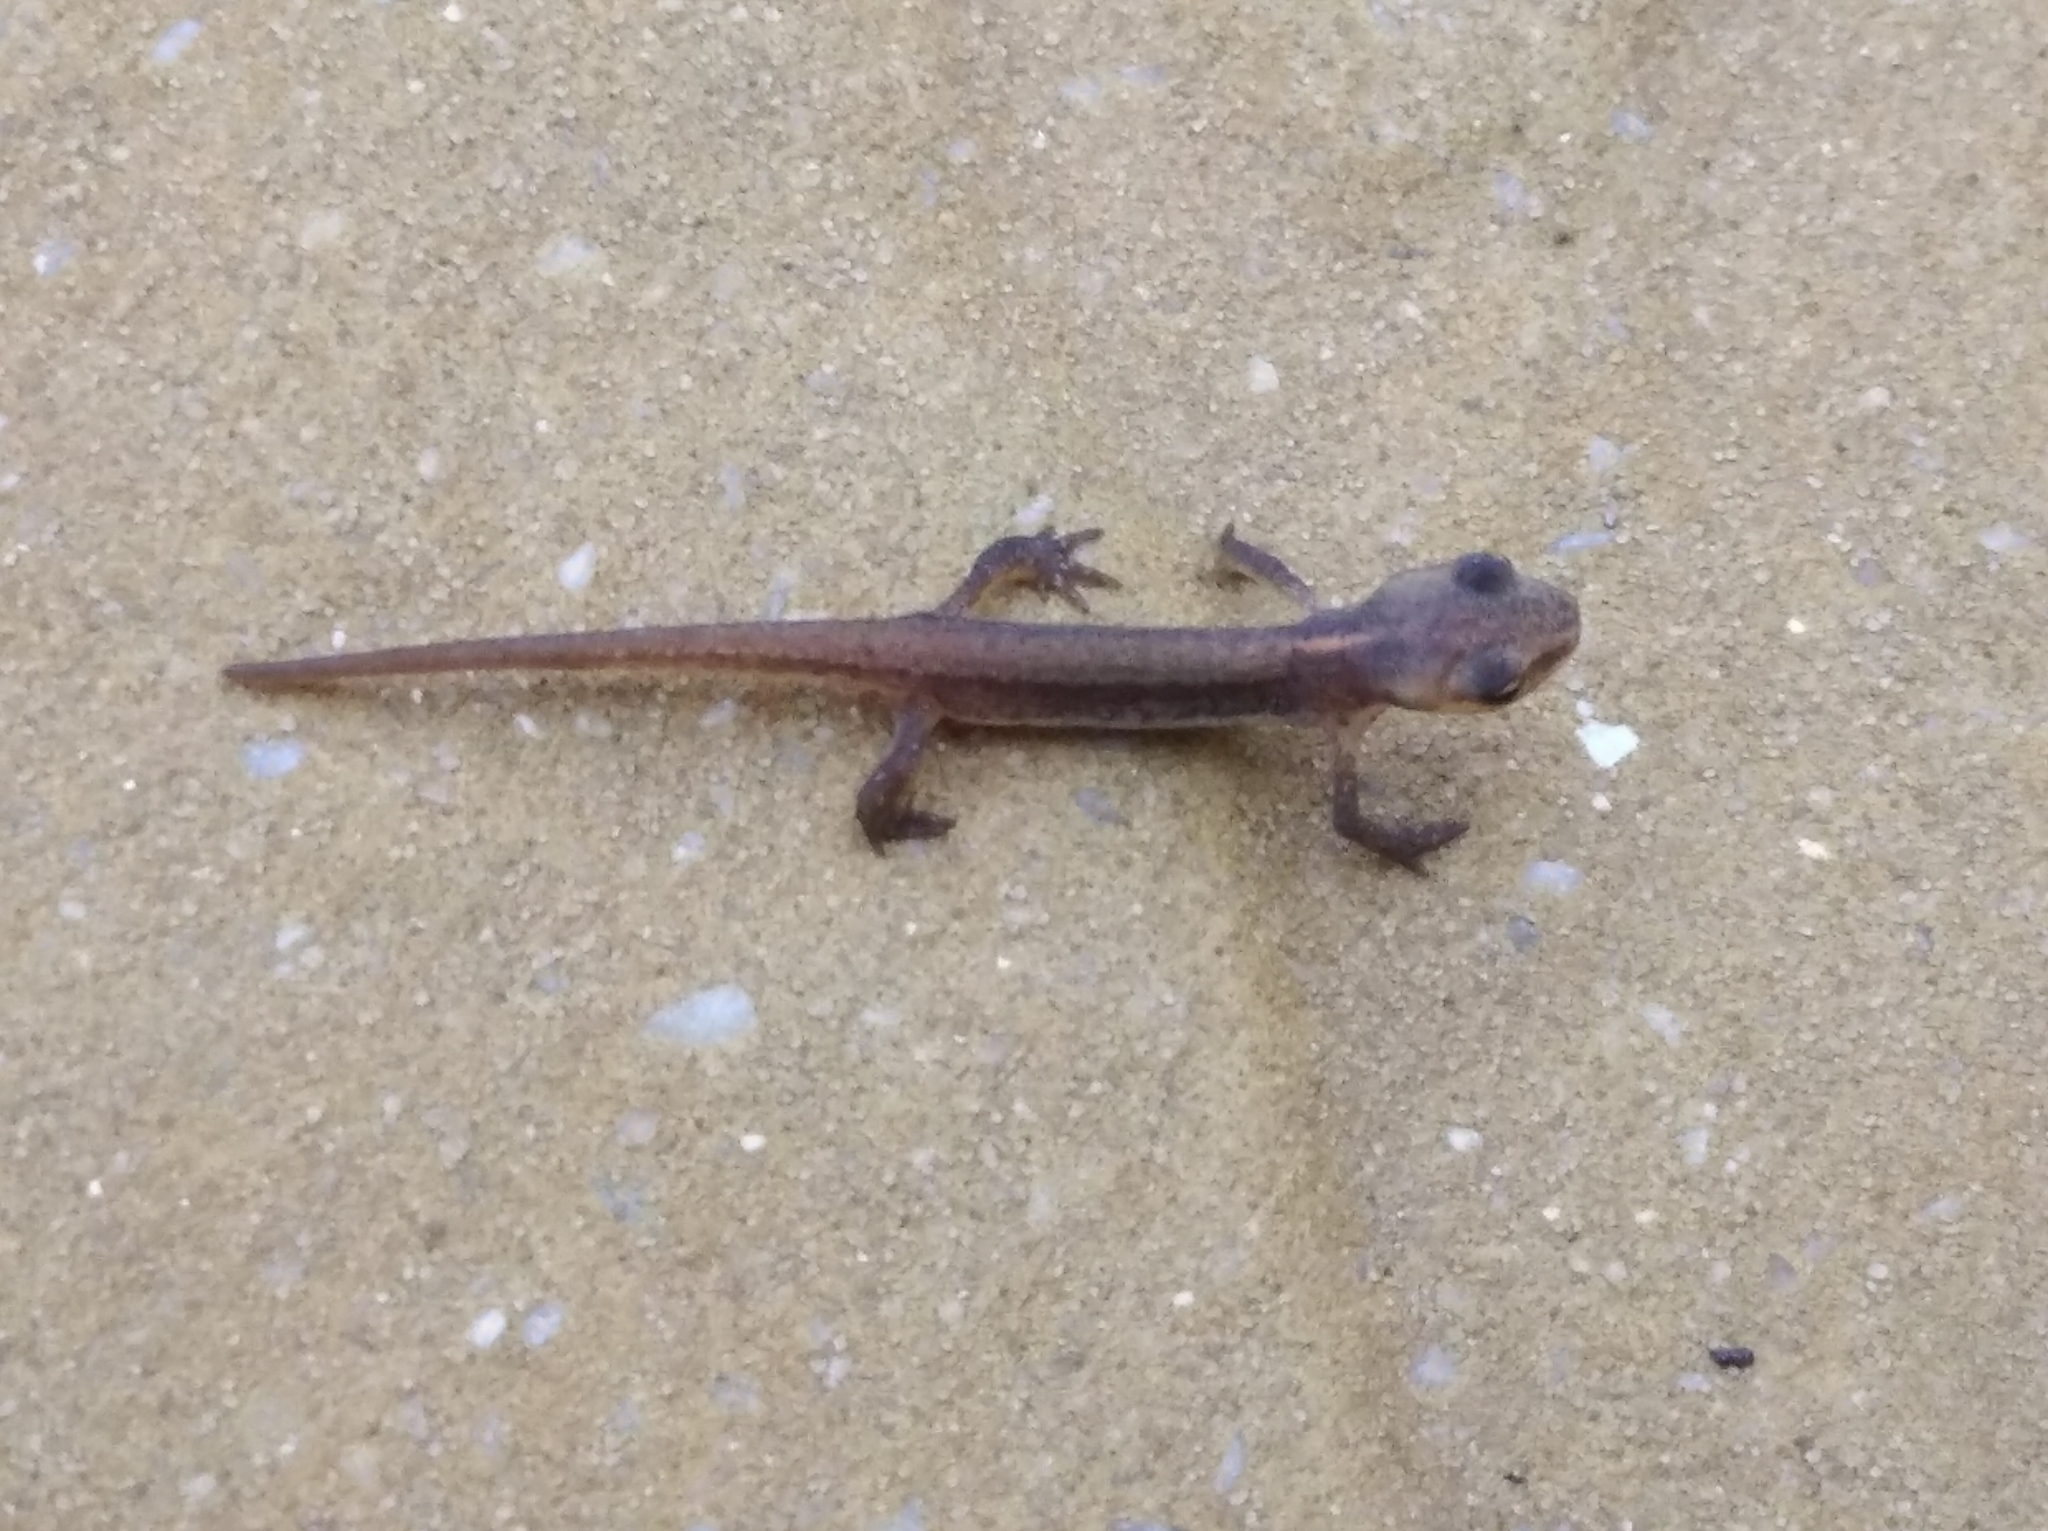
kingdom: Animalia
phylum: Chordata
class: Amphibia
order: Caudata
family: Salamandridae
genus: Lissotriton
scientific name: Lissotriton schmidtleri
